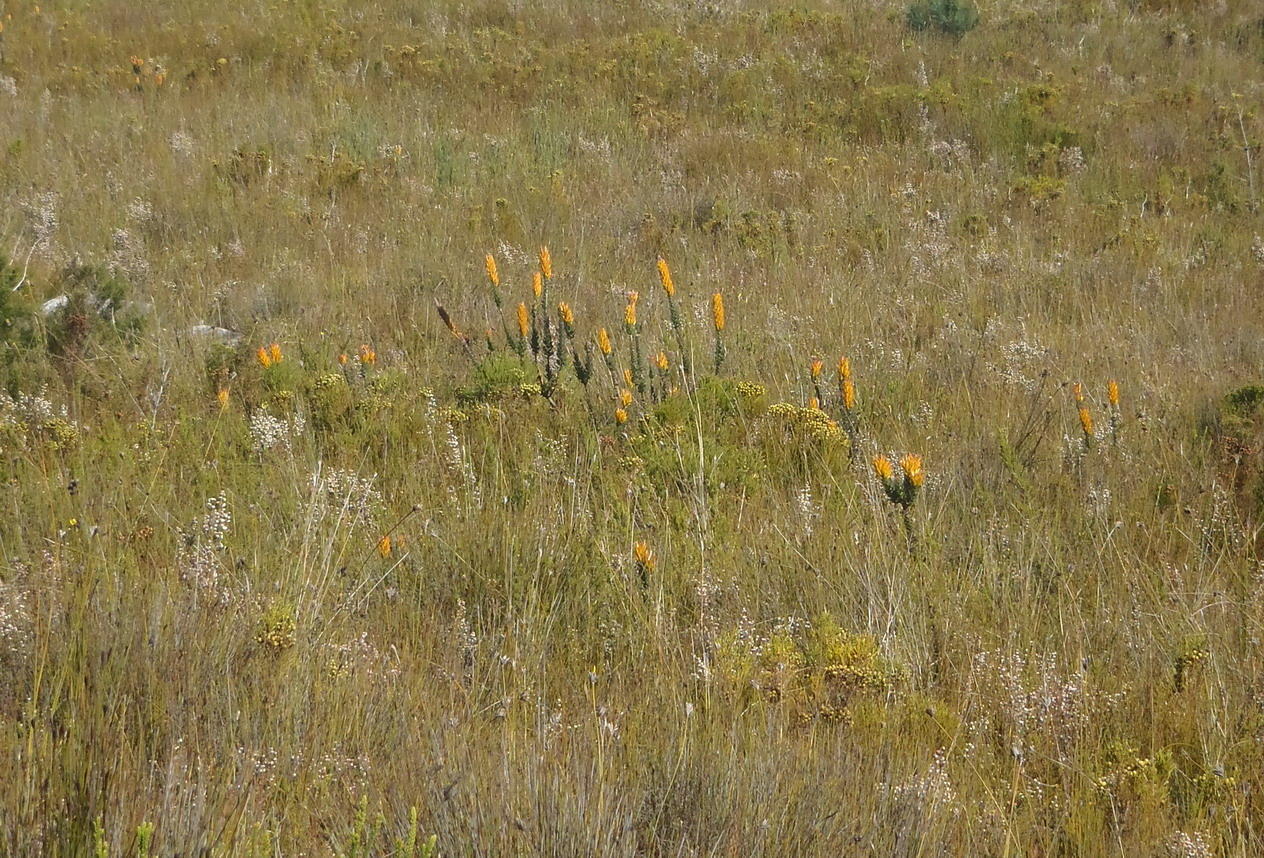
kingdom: Plantae
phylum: Tracheophyta
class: Magnoliopsida
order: Proteales
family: Proteaceae
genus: Mimetes
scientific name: Mimetes pauciflora
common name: Three-flowered pagoda
